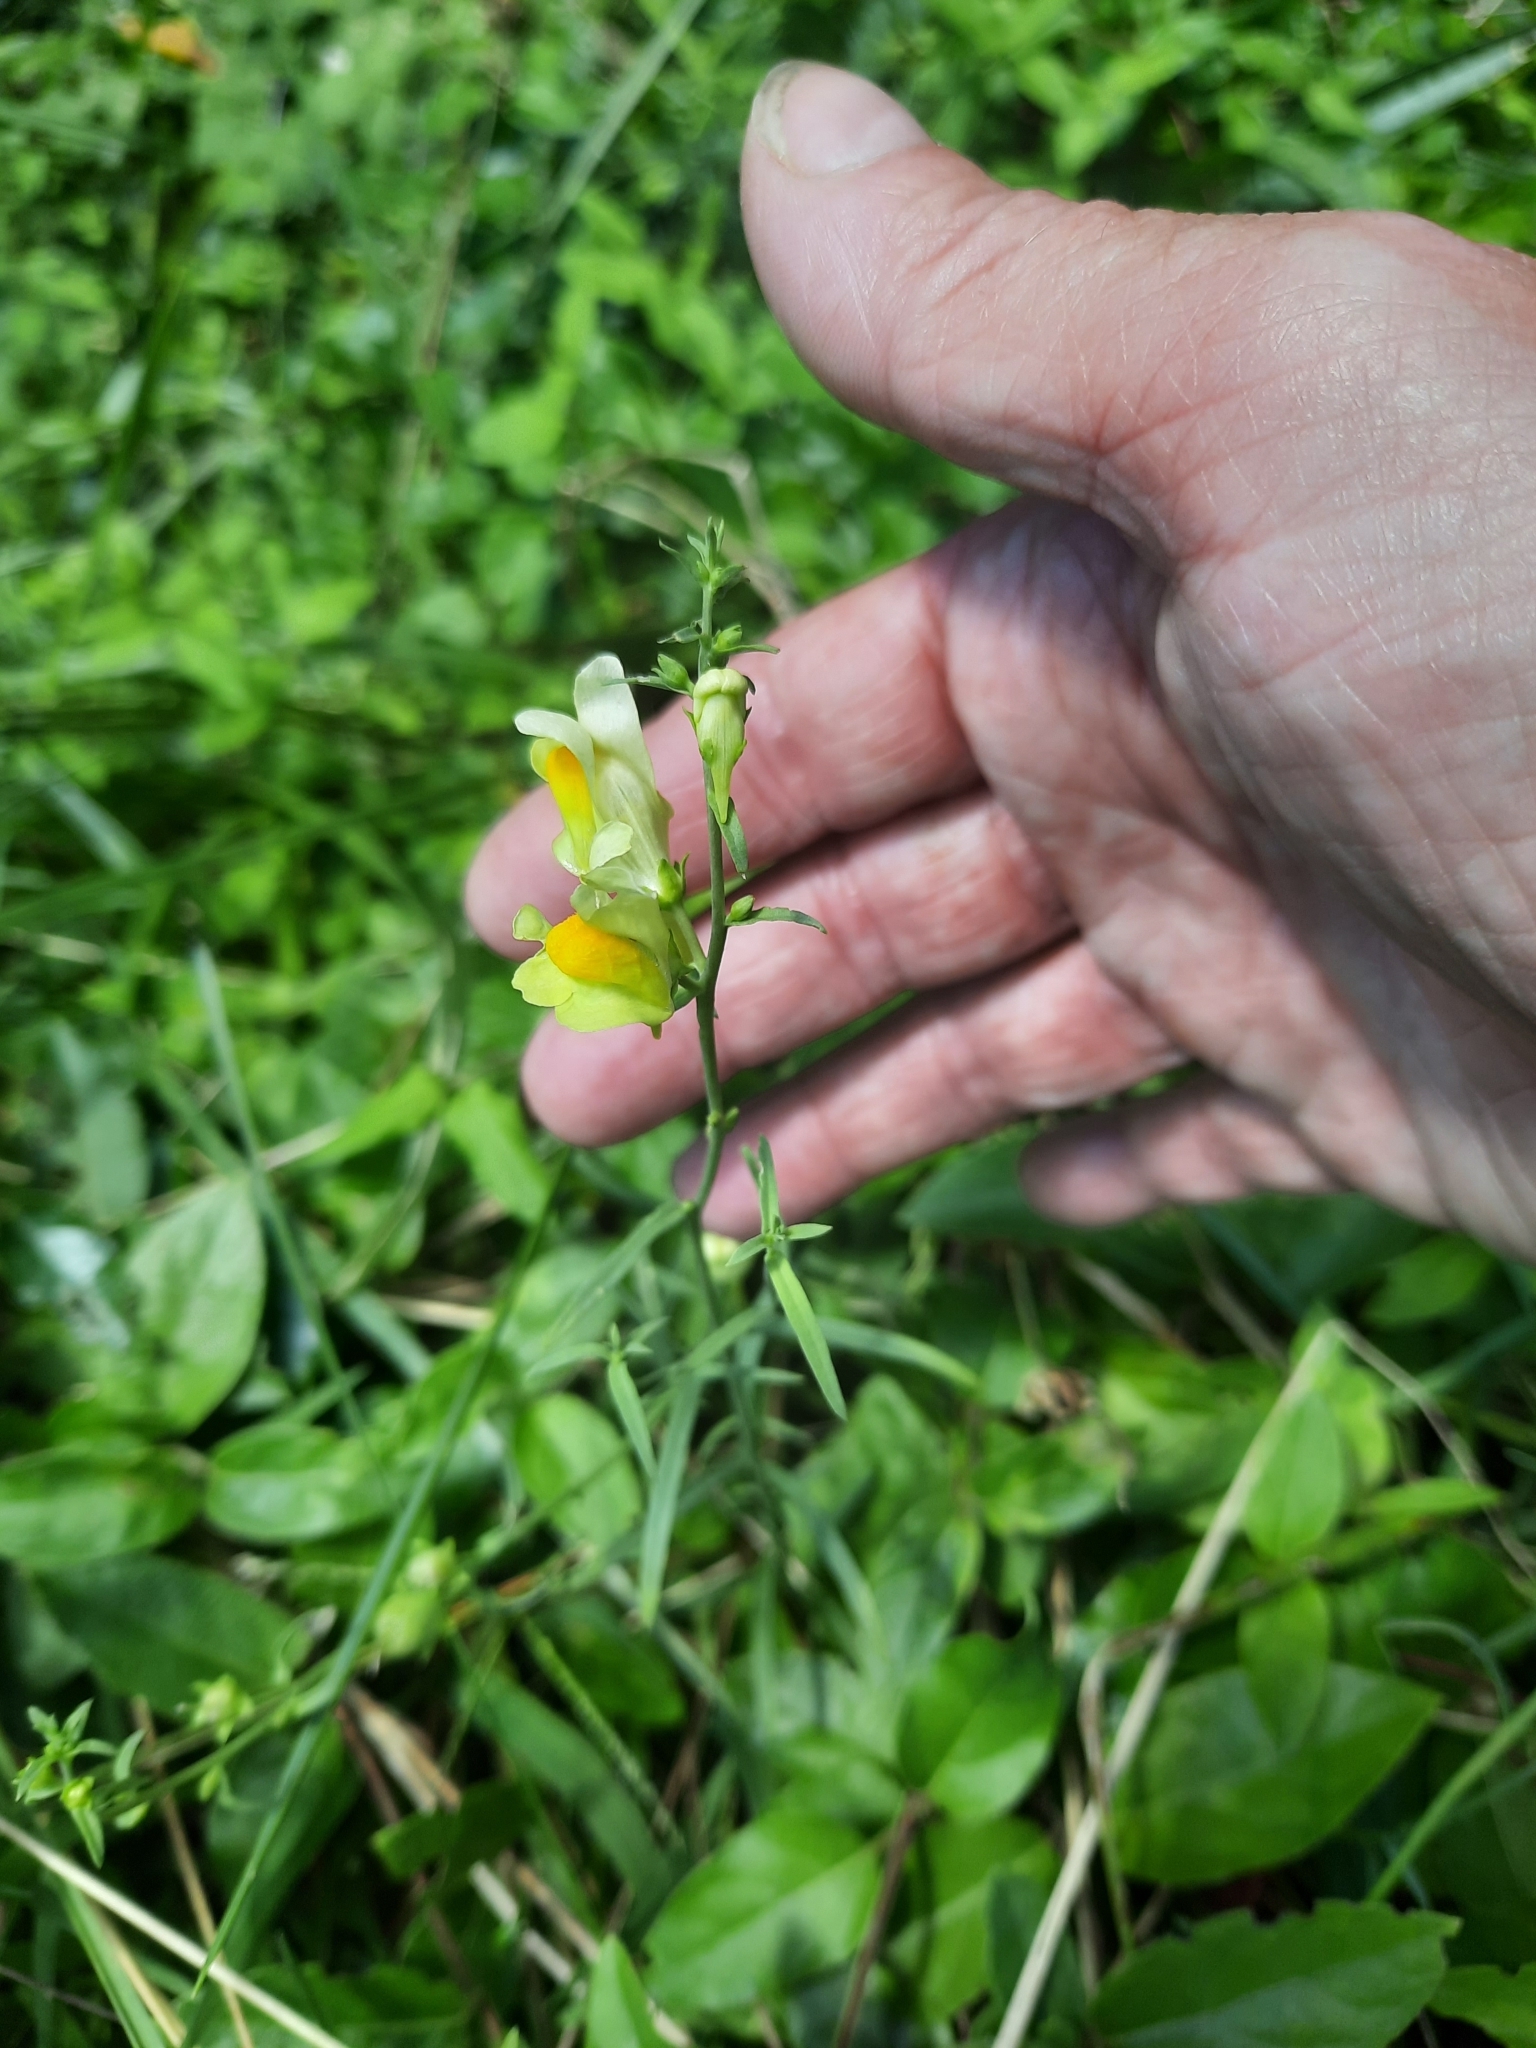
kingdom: Plantae
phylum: Tracheophyta
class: Magnoliopsida
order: Lamiales
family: Plantaginaceae
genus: Linaria
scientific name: Linaria vulgaris
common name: Butter and eggs
